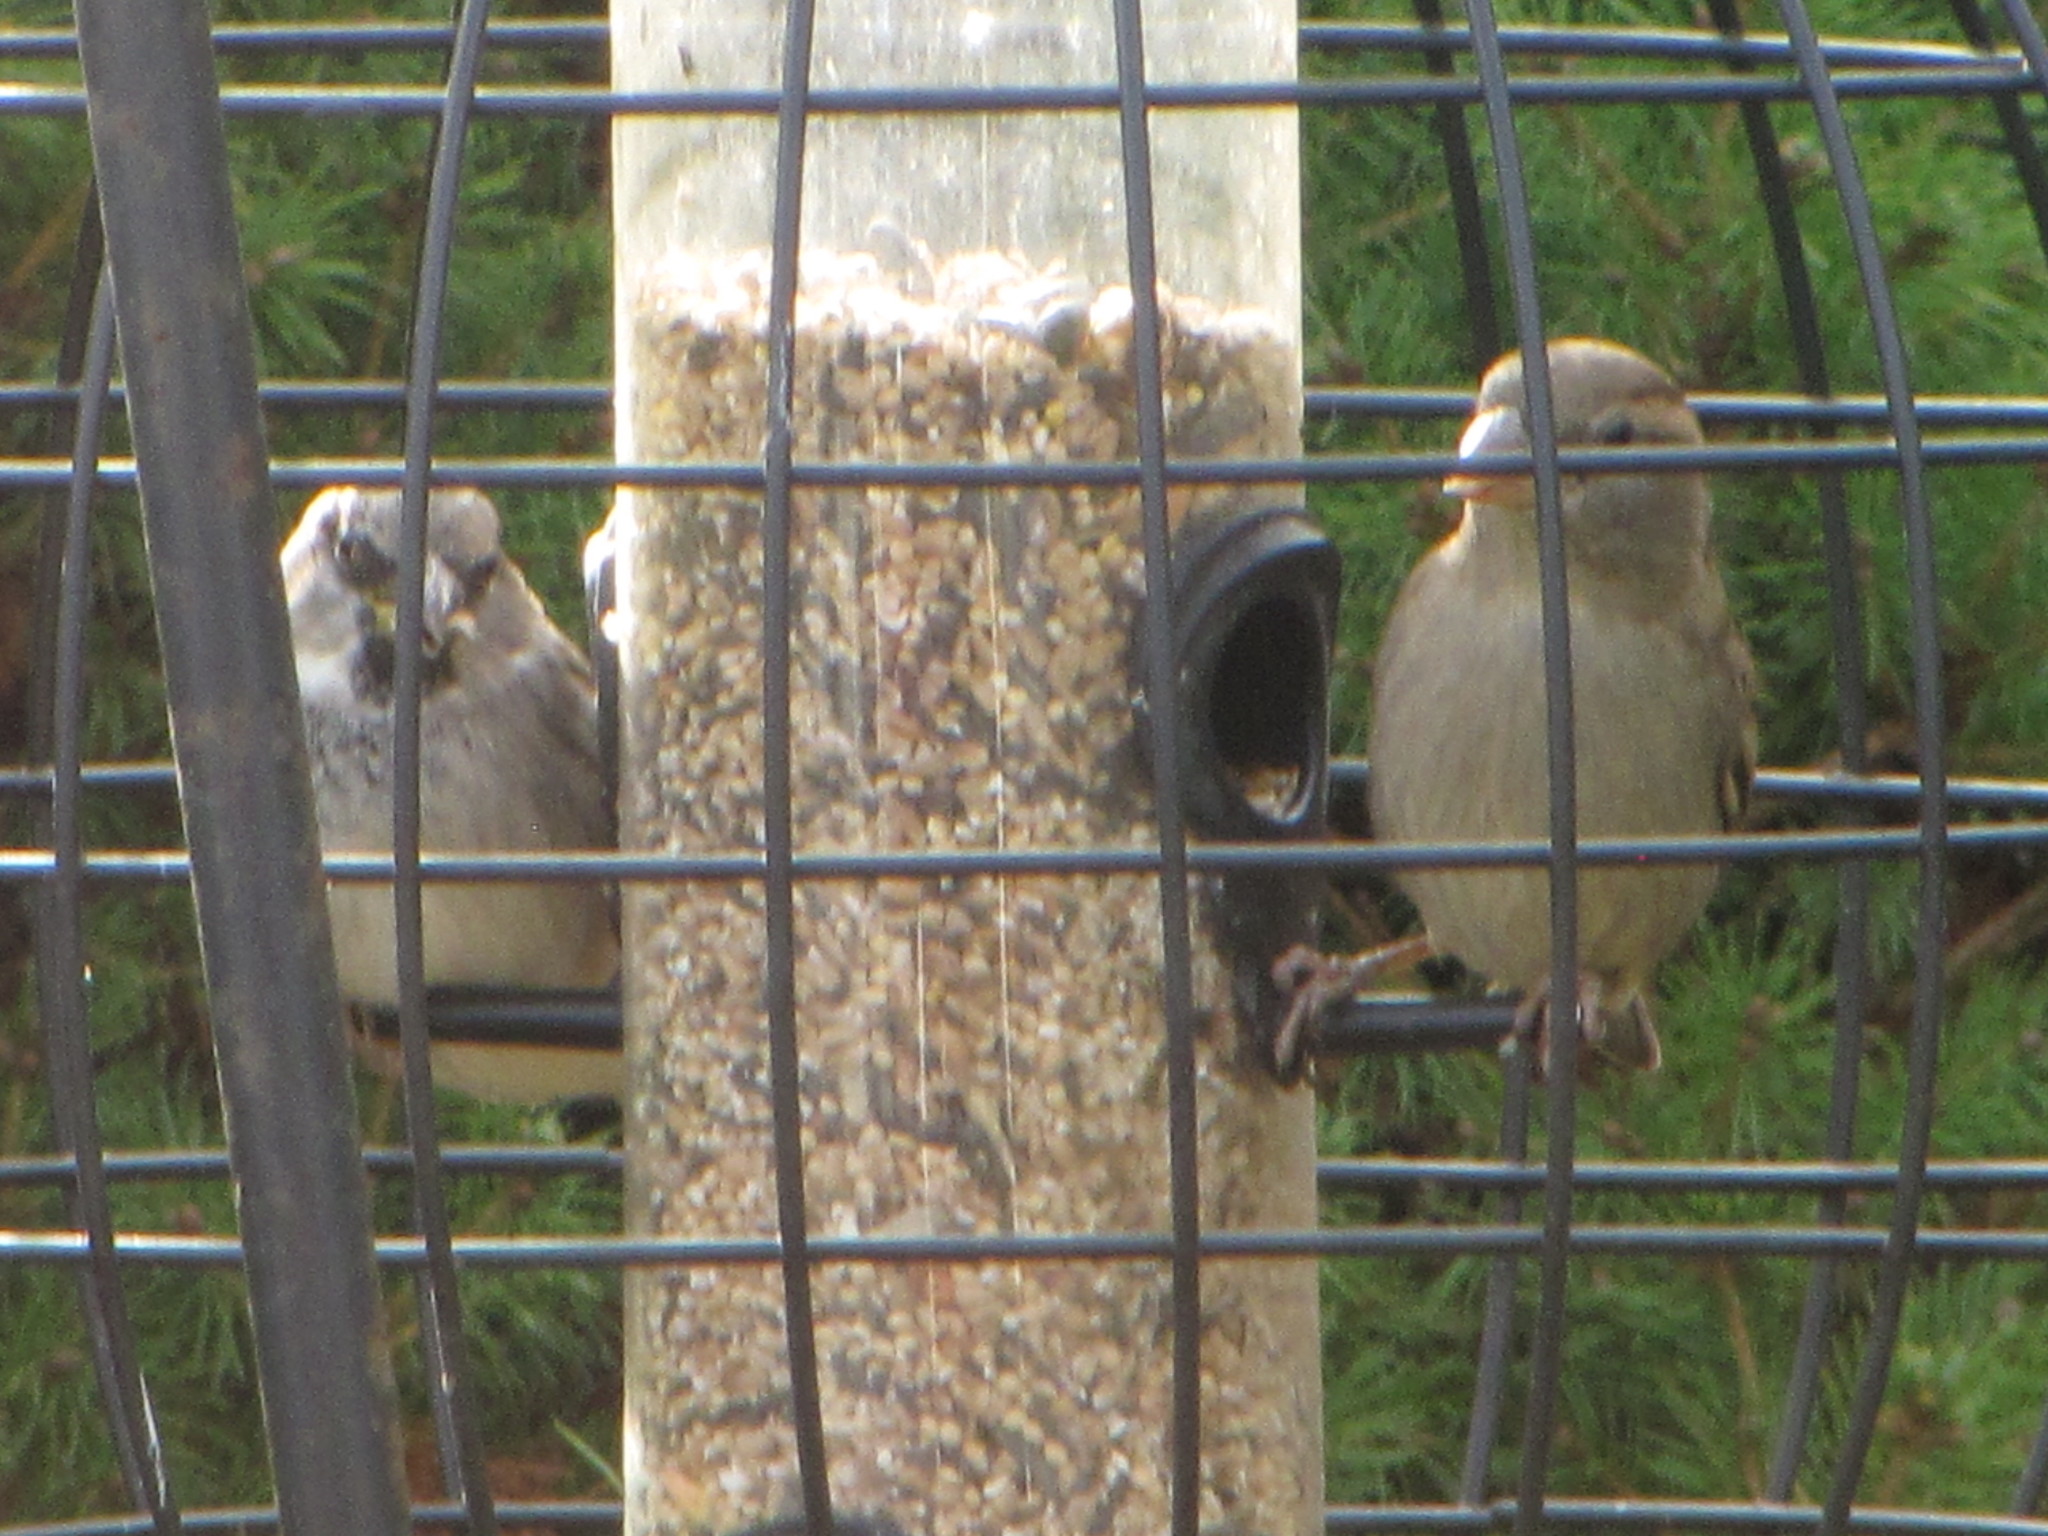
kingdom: Animalia
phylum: Chordata
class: Aves
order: Passeriformes
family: Passeridae
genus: Passer
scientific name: Passer domesticus
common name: House sparrow
